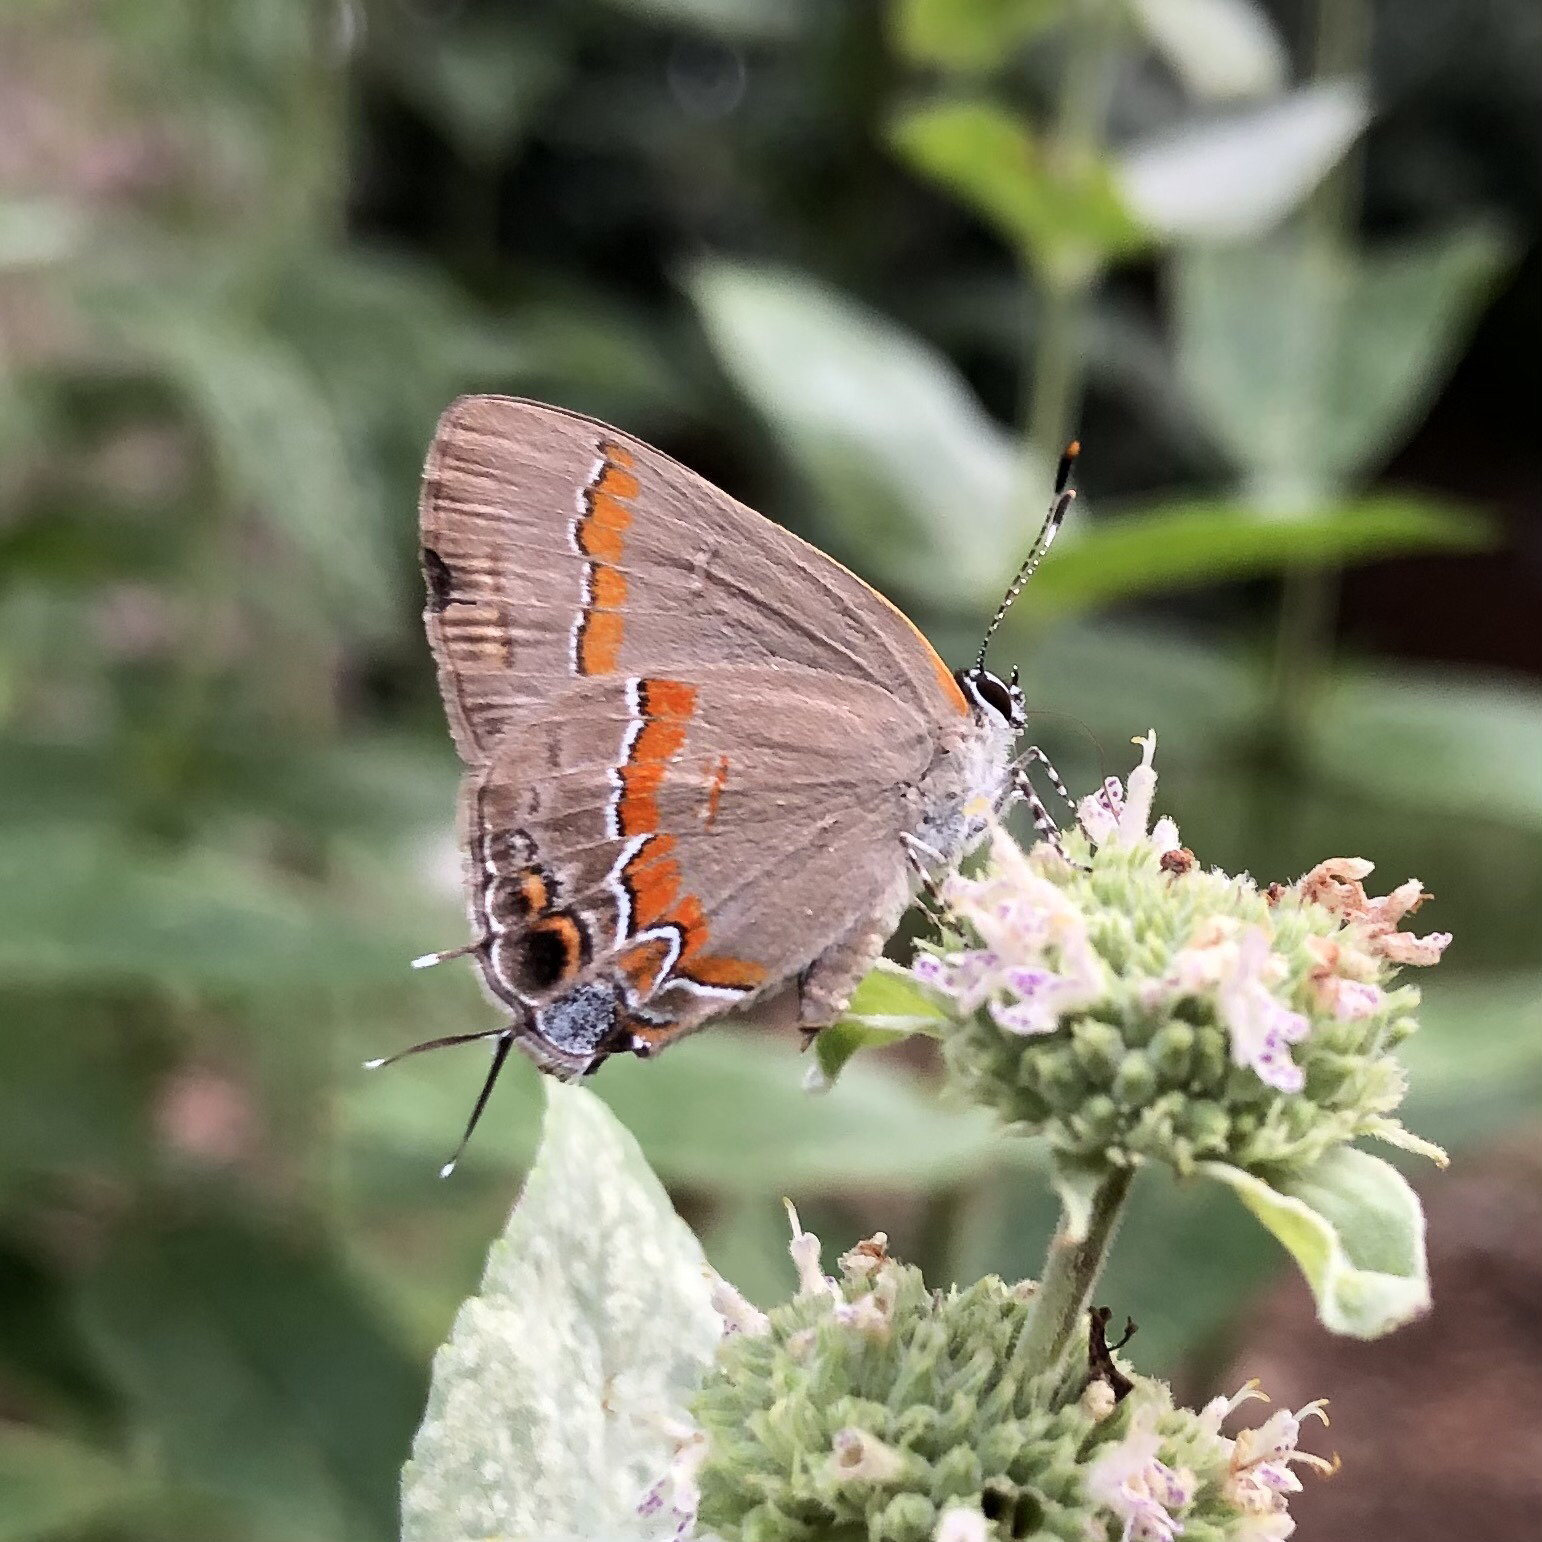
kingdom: Animalia
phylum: Arthropoda
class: Insecta
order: Lepidoptera
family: Lycaenidae
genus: Calycopis
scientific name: Calycopis cecrops
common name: Red-banded hairstreak
